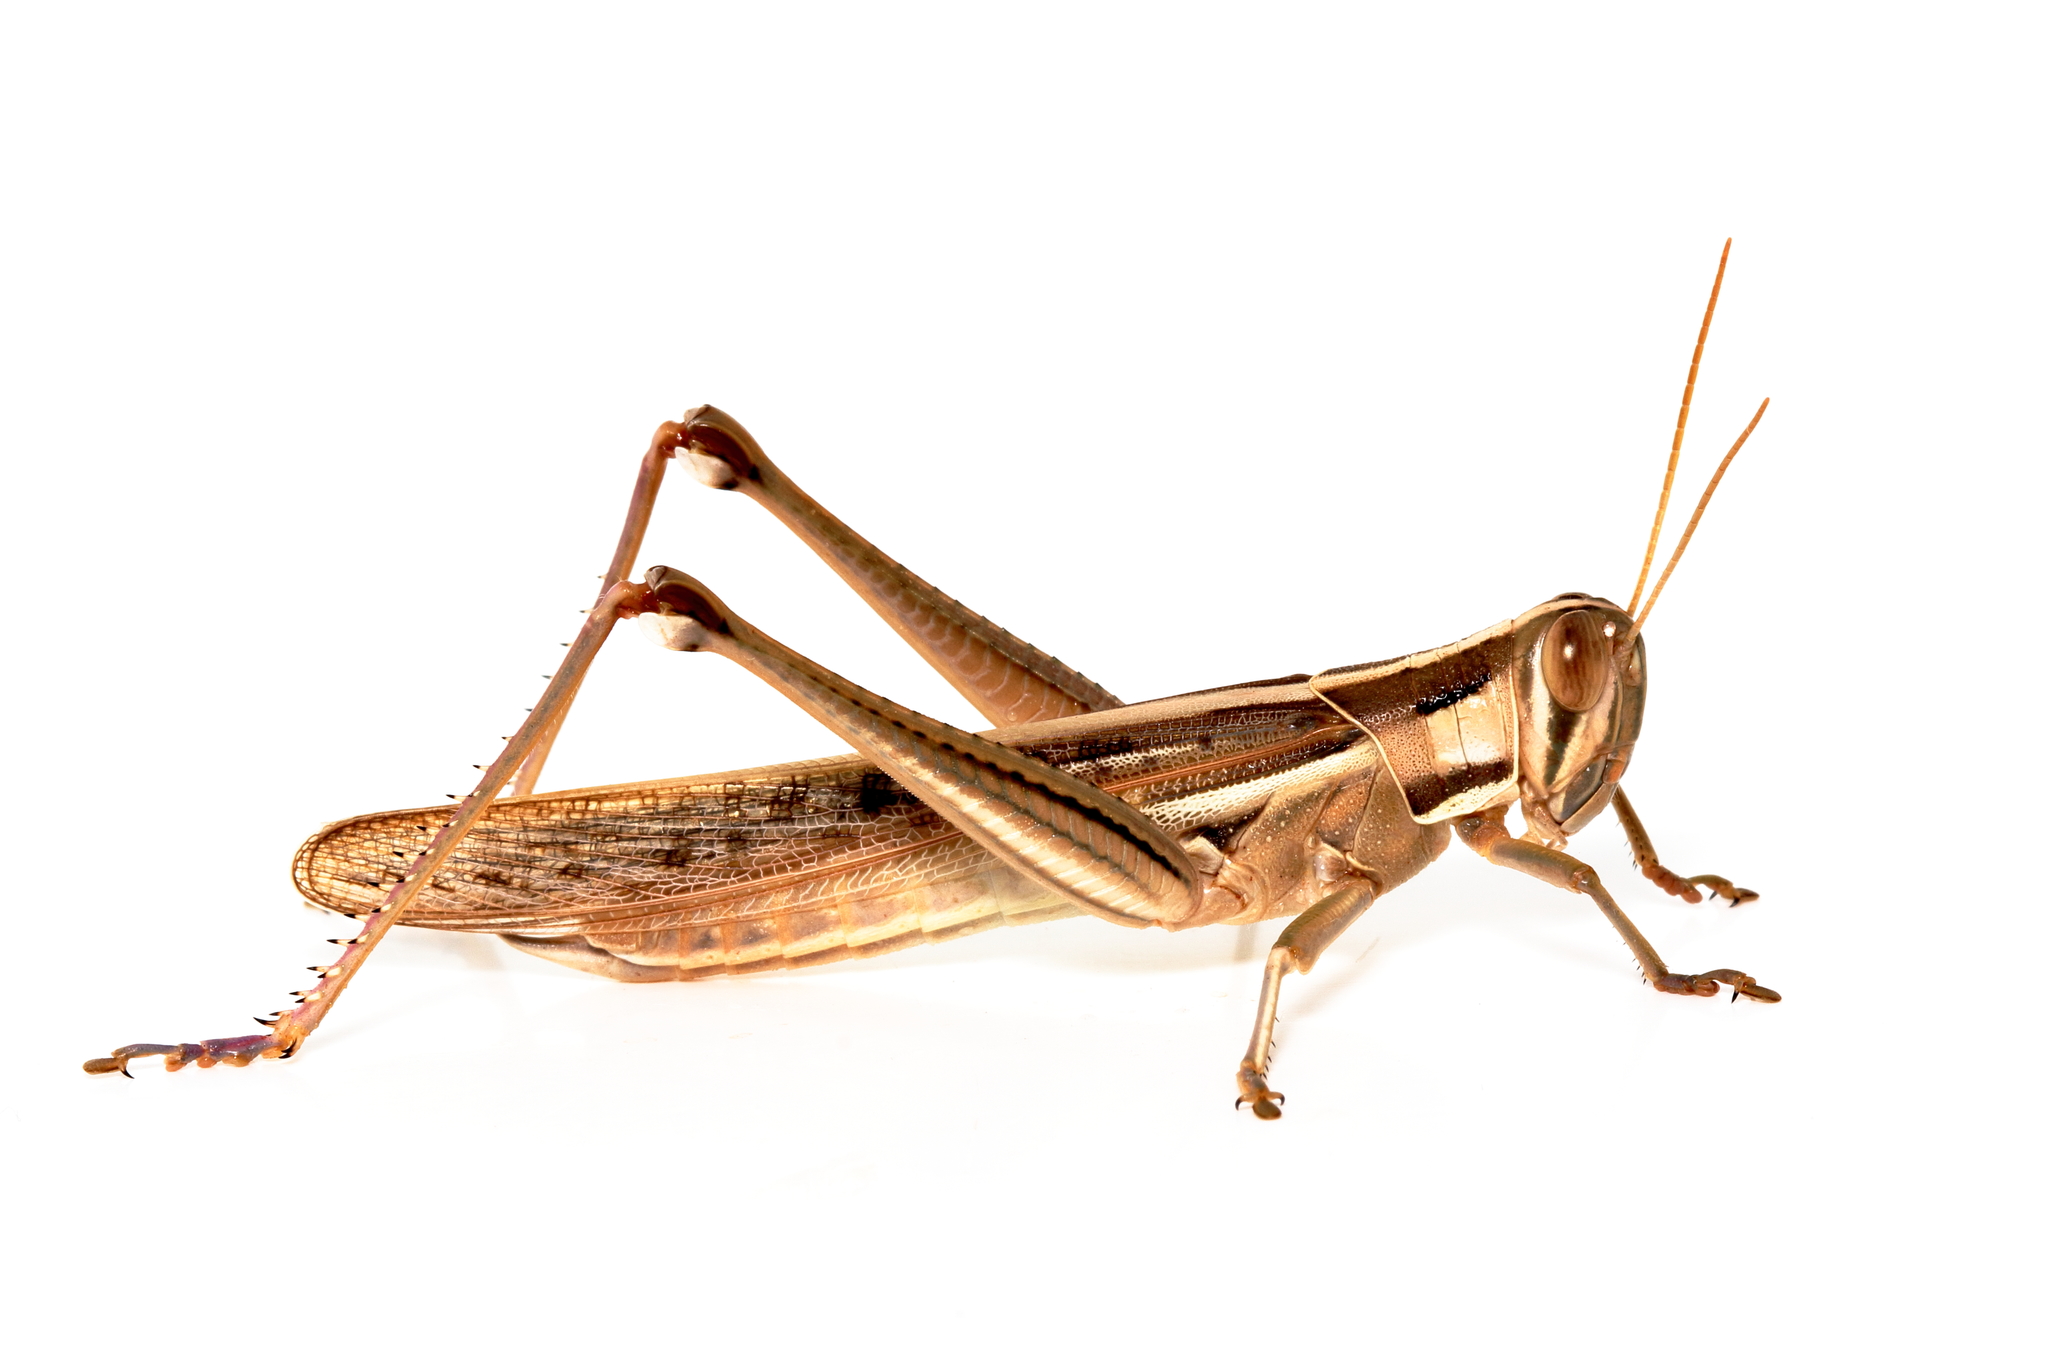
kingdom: Animalia
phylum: Arthropoda
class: Insecta
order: Orthoptera
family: Acrididae
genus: Austracris
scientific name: Austracris guttulosa
